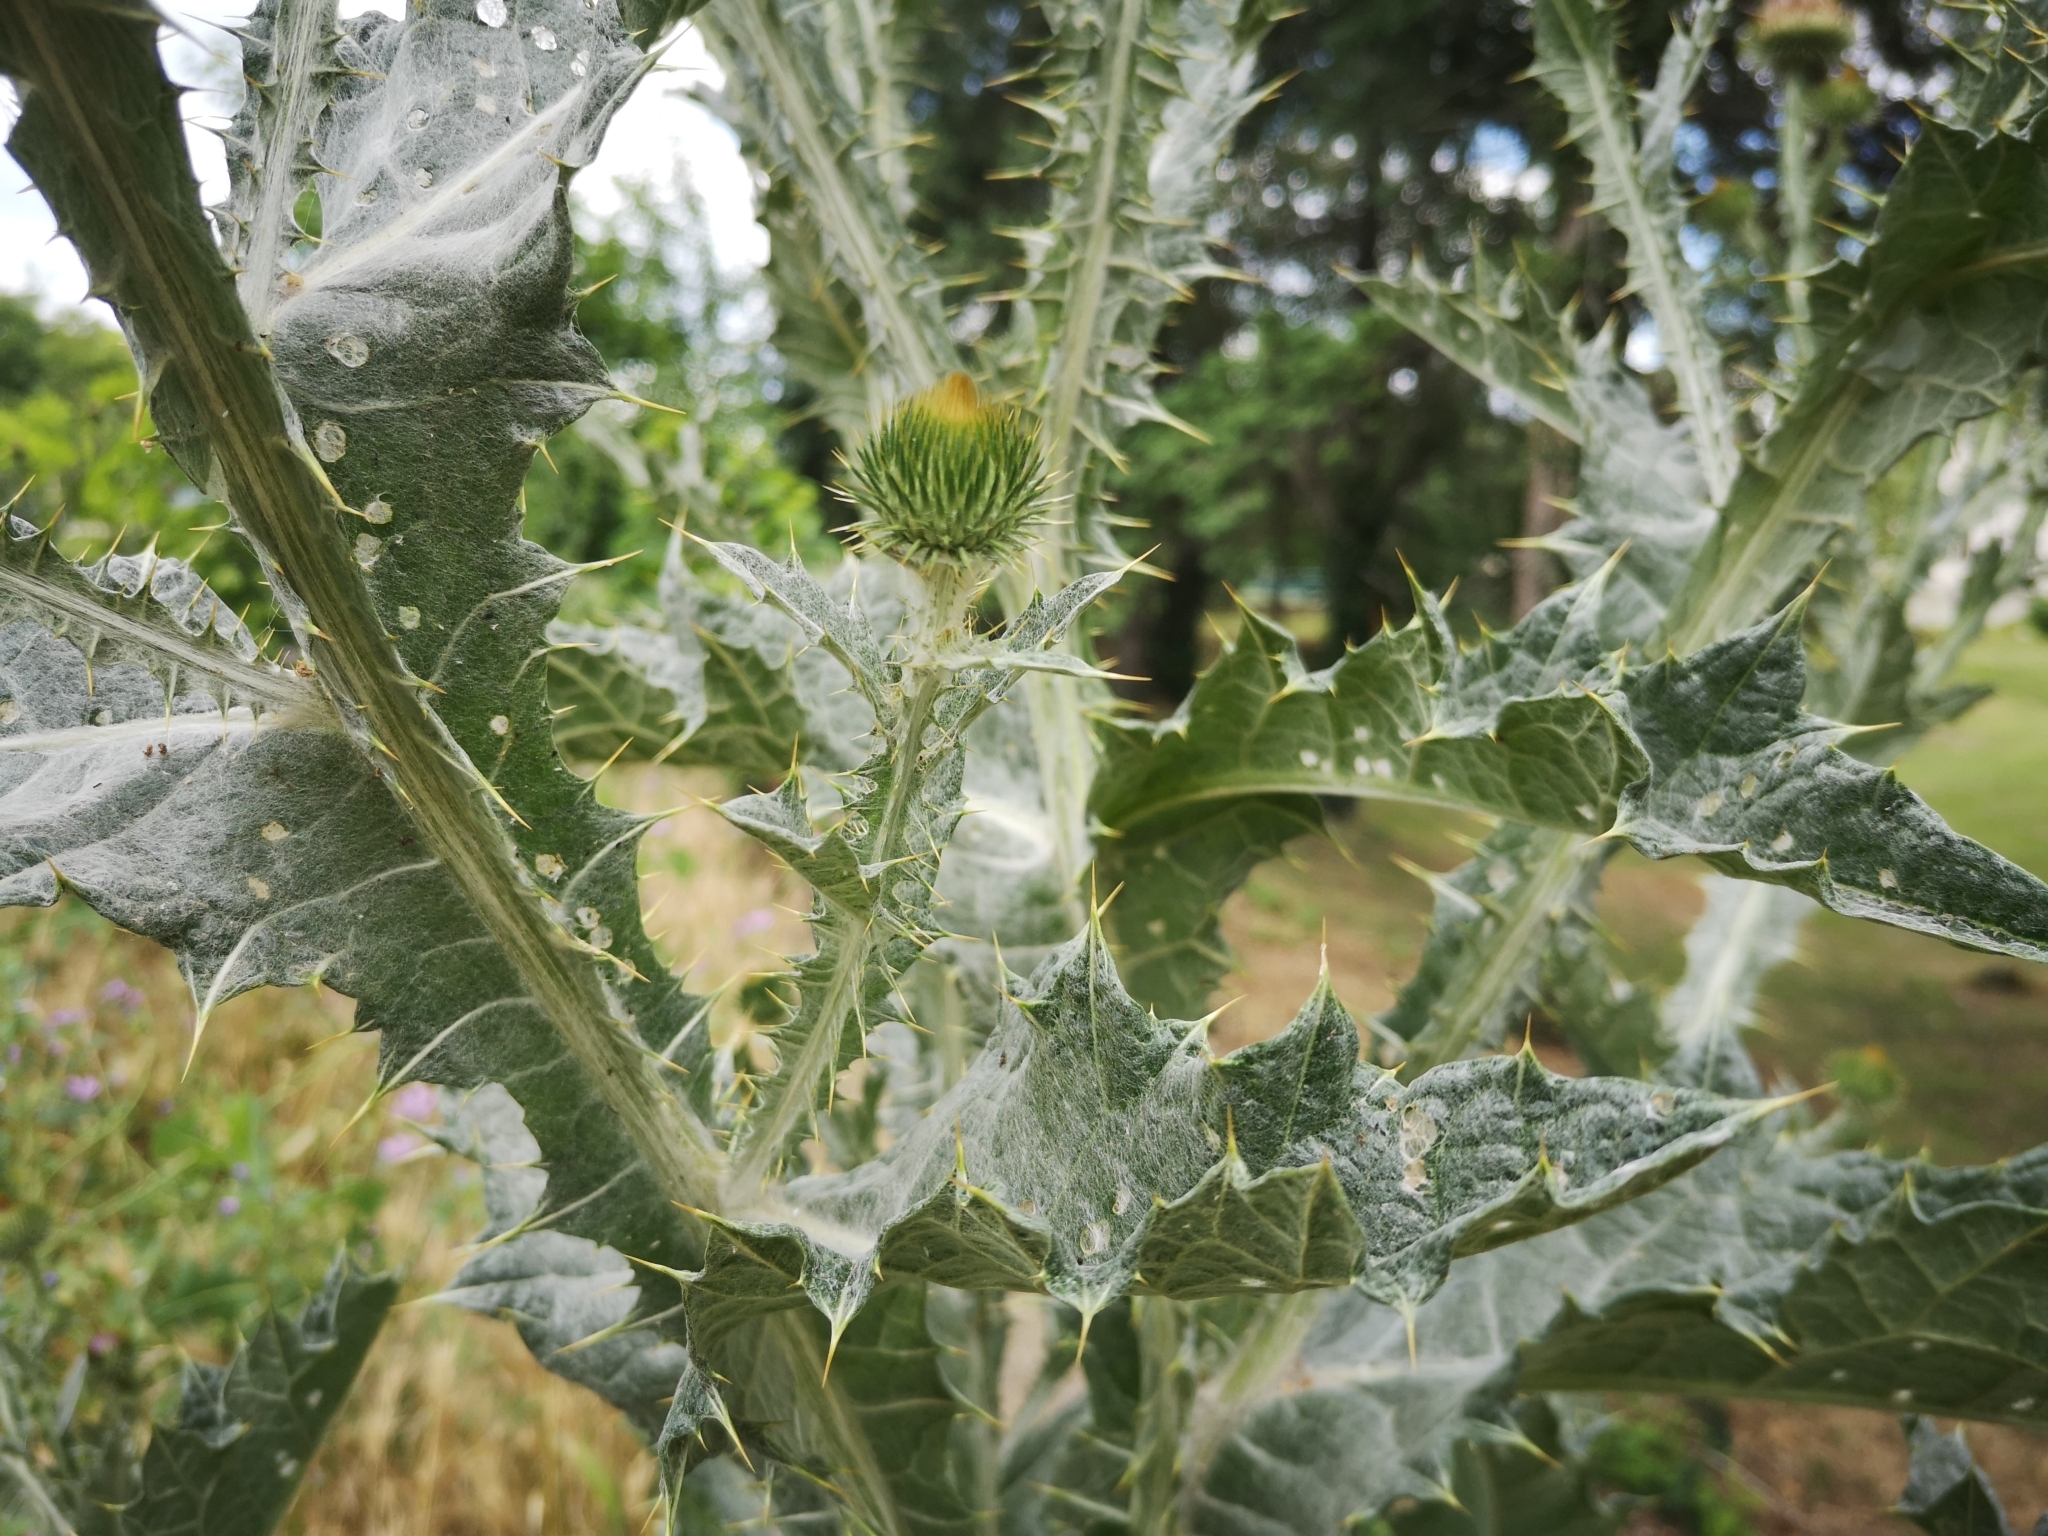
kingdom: Plantae
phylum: Tracheophyta
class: Magnoliopsida
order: Asterales
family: Asteraceae
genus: Onopordum
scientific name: Onopordum acanthium
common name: Scotch thistle
